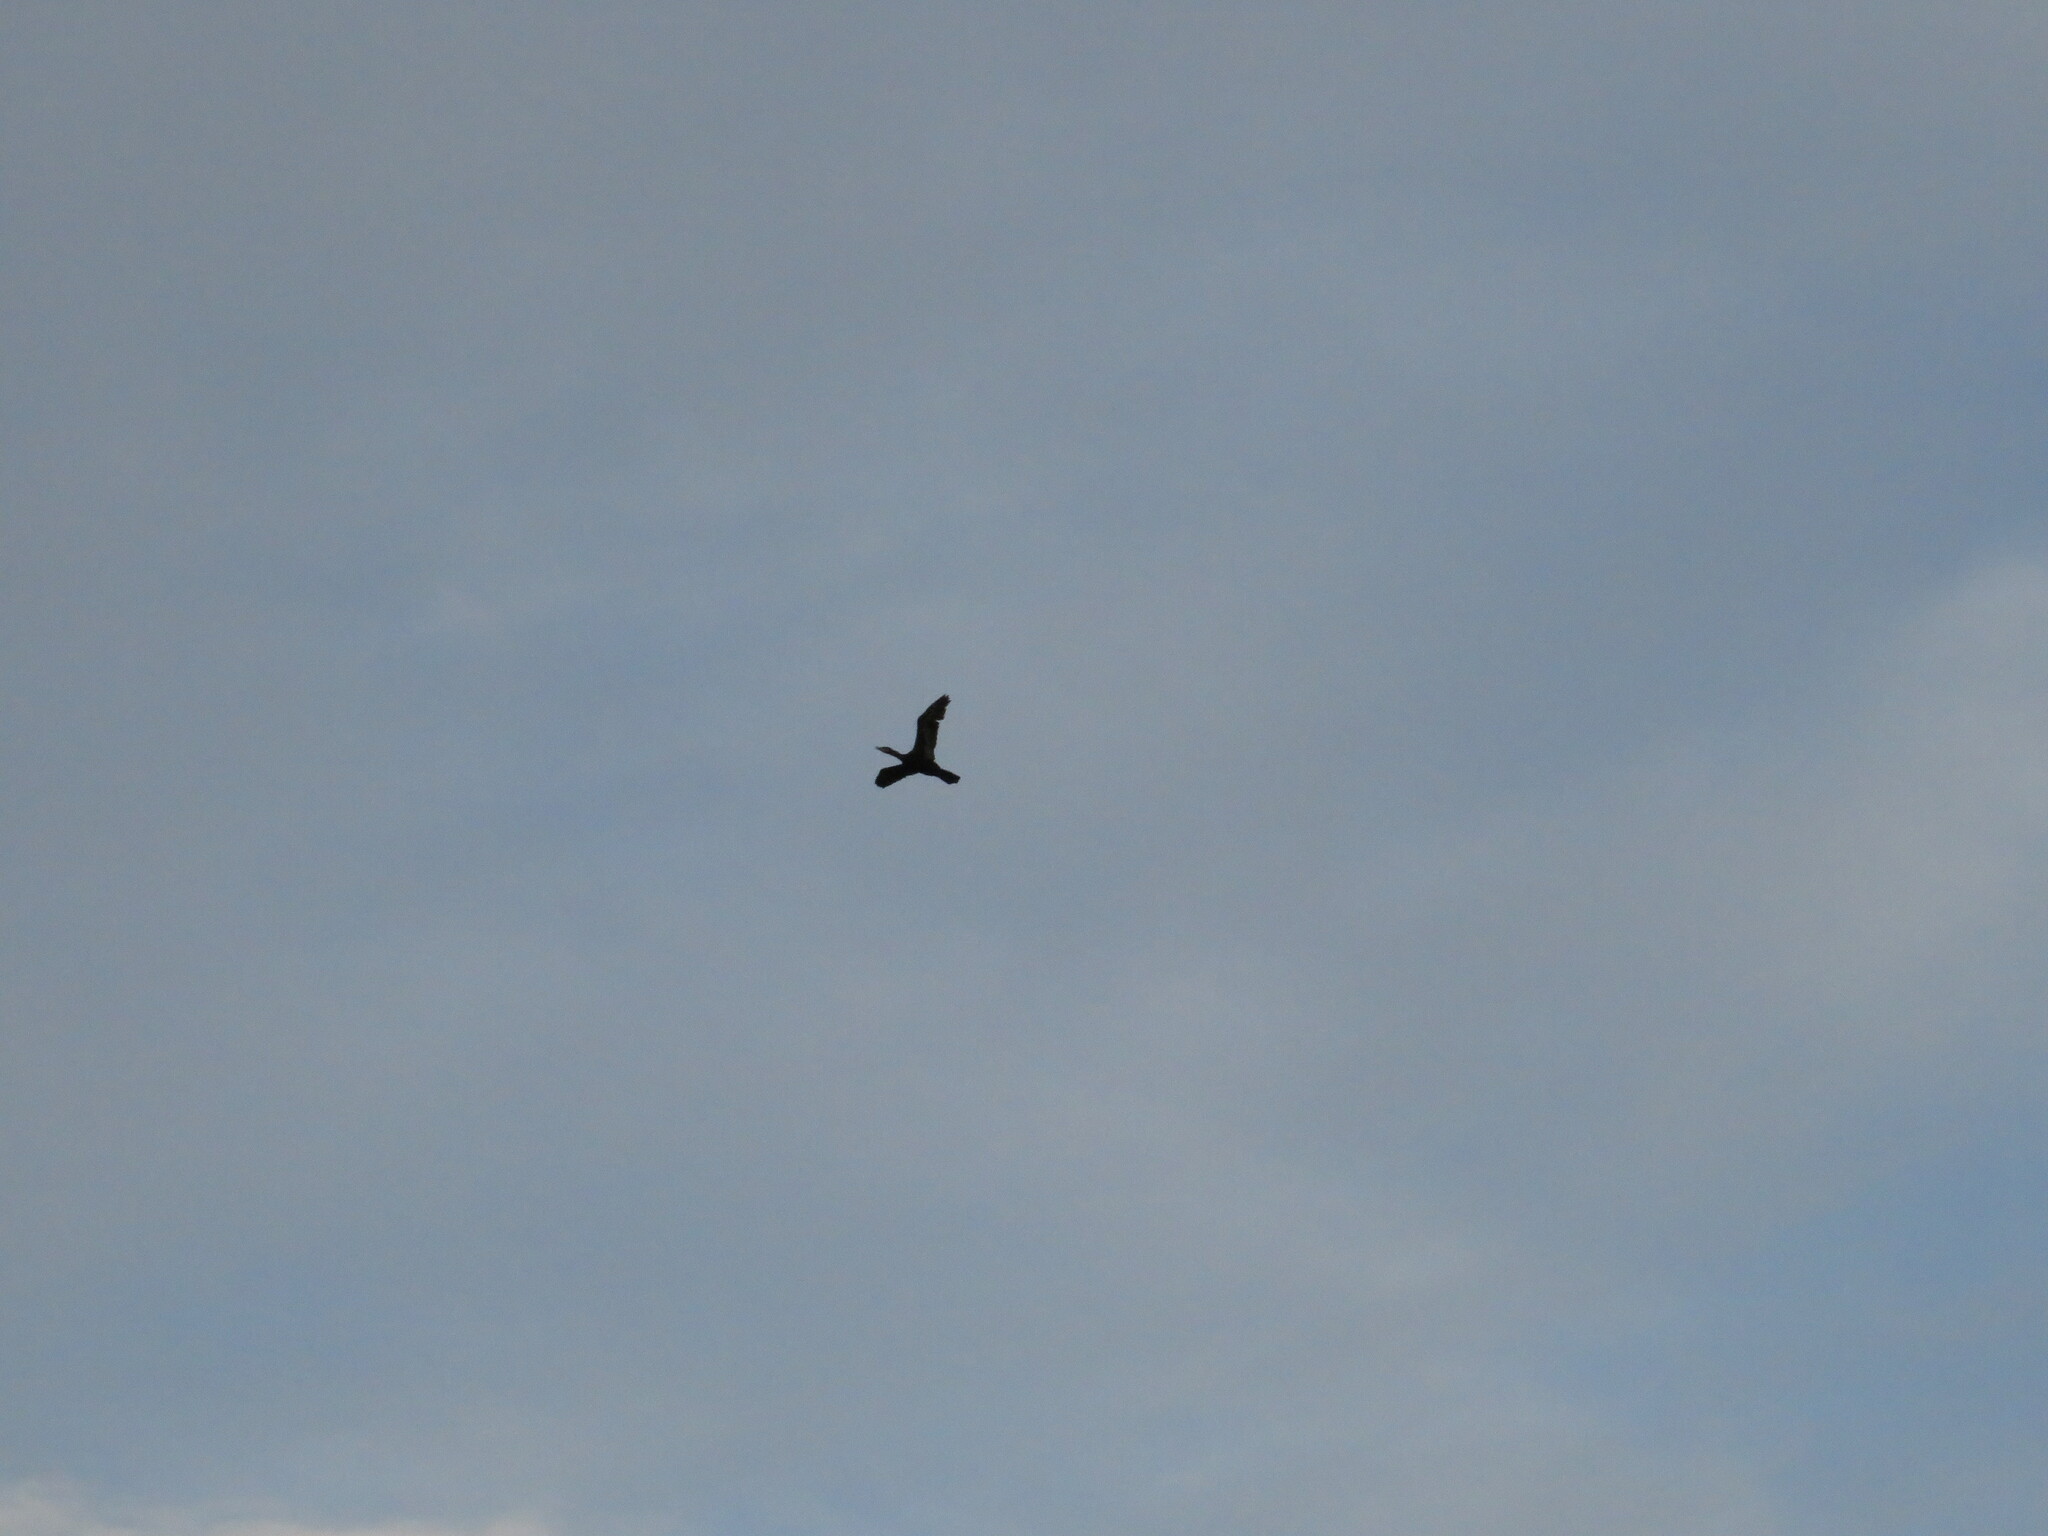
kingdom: Animalia
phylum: Chordata
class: Aves
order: Suliformes
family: Phalacrocoracidae
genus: Phalacrocorax
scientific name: Phalacrocorax brasilianus
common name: Neotropic cormorant
